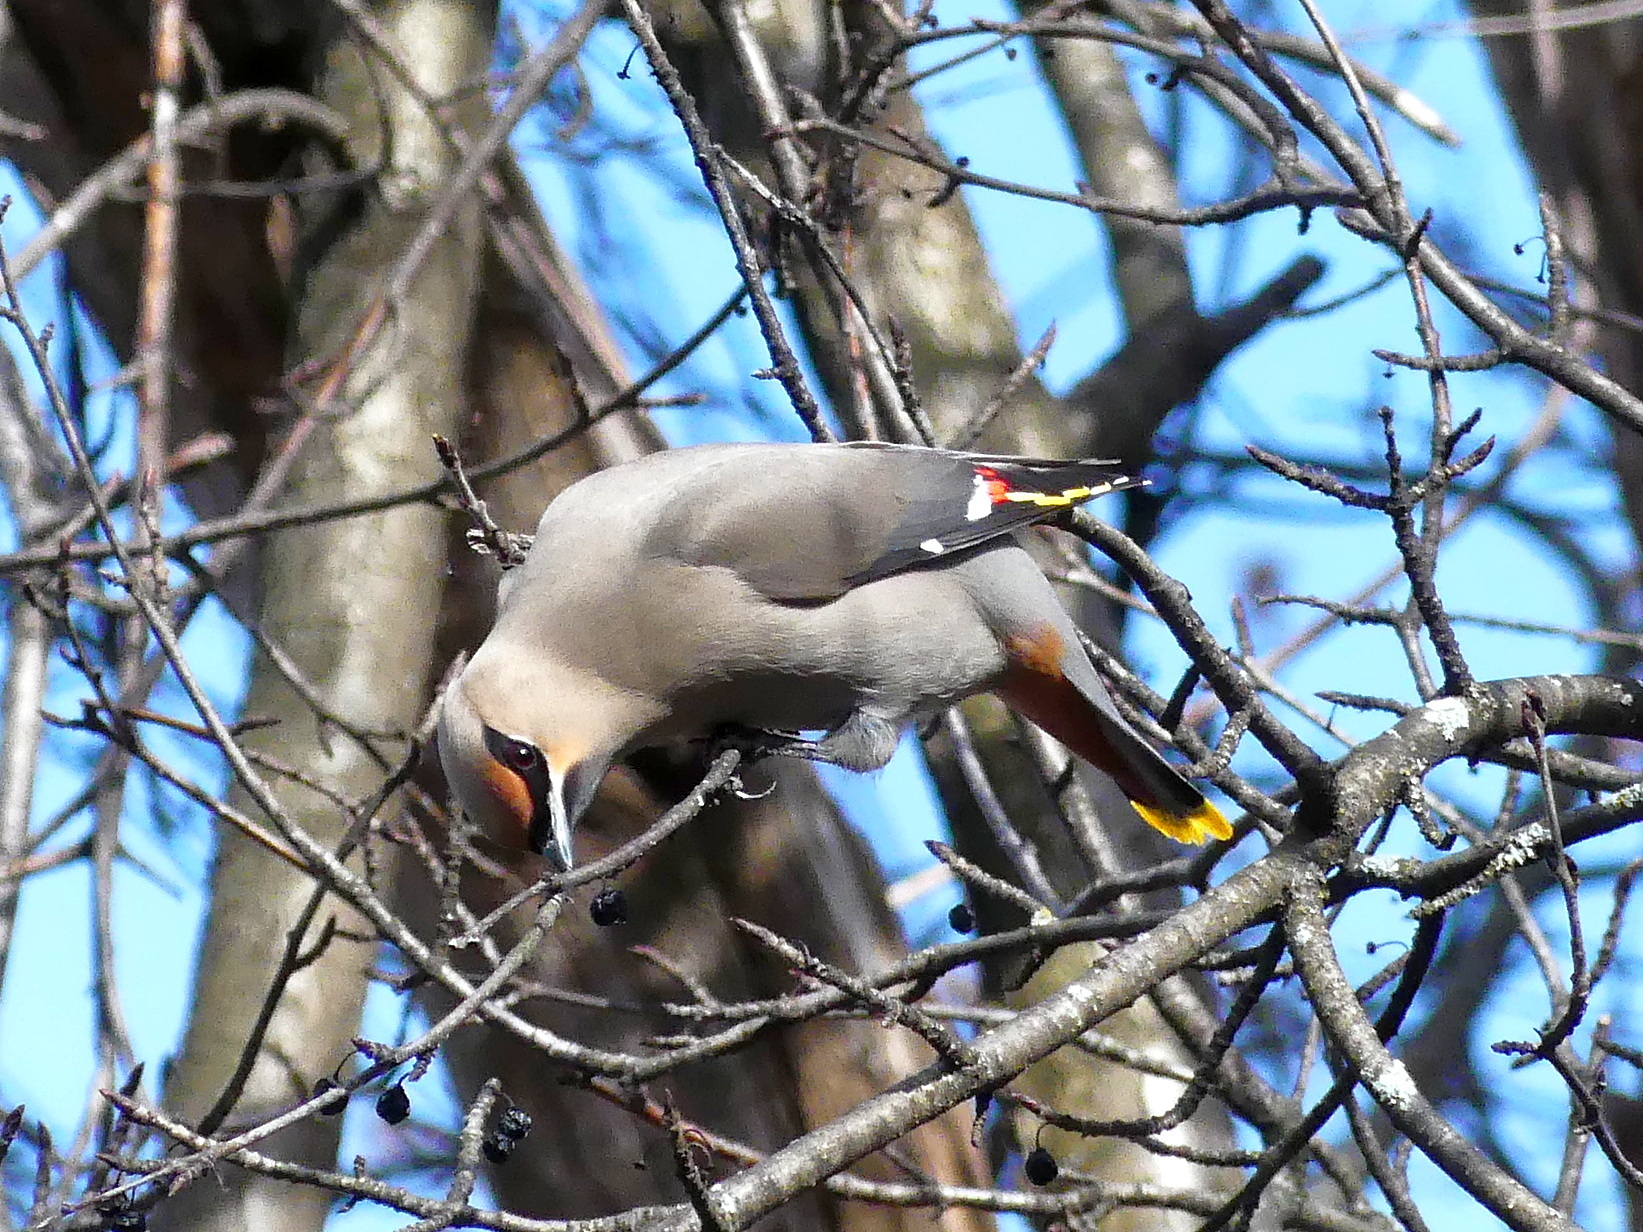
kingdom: Animalia
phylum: Chordata
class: Aves
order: Passeriformes
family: Bombycillidae
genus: Bombycilla
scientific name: Bombycilla garrulus
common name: Bohemian waxwing
